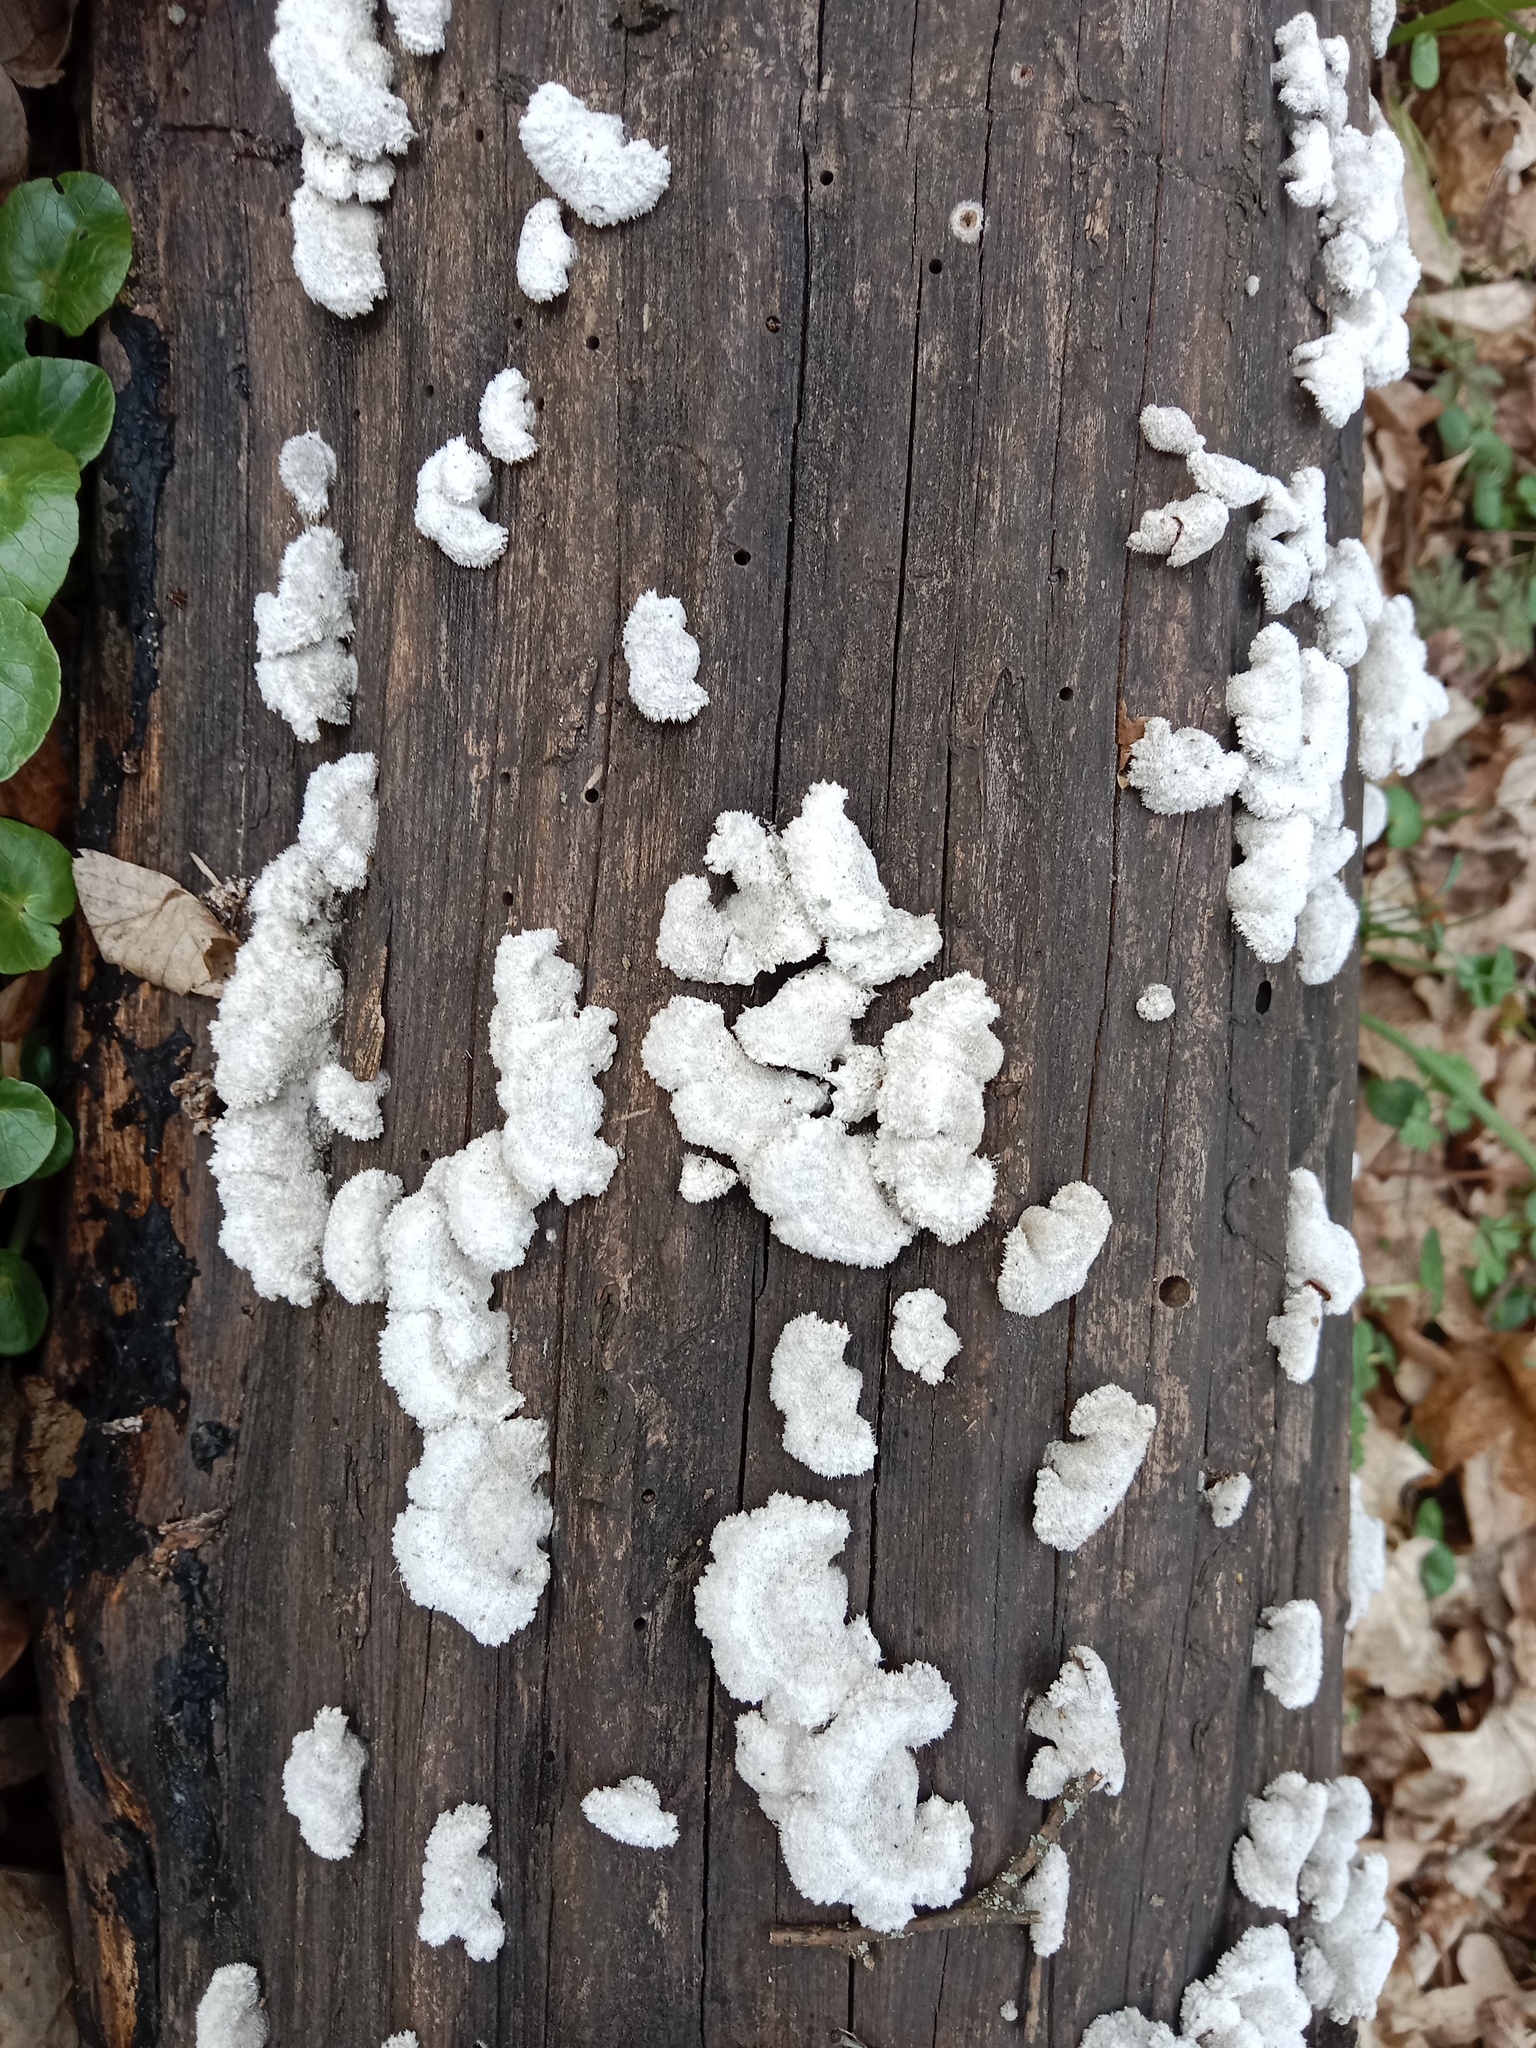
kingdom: Fungi
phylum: Basidiomycota
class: Agaricomycetes
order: Agaricales
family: Schizophyllaceae
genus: Schizophyllum
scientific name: Schizophyllum commune
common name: Common porecrust
